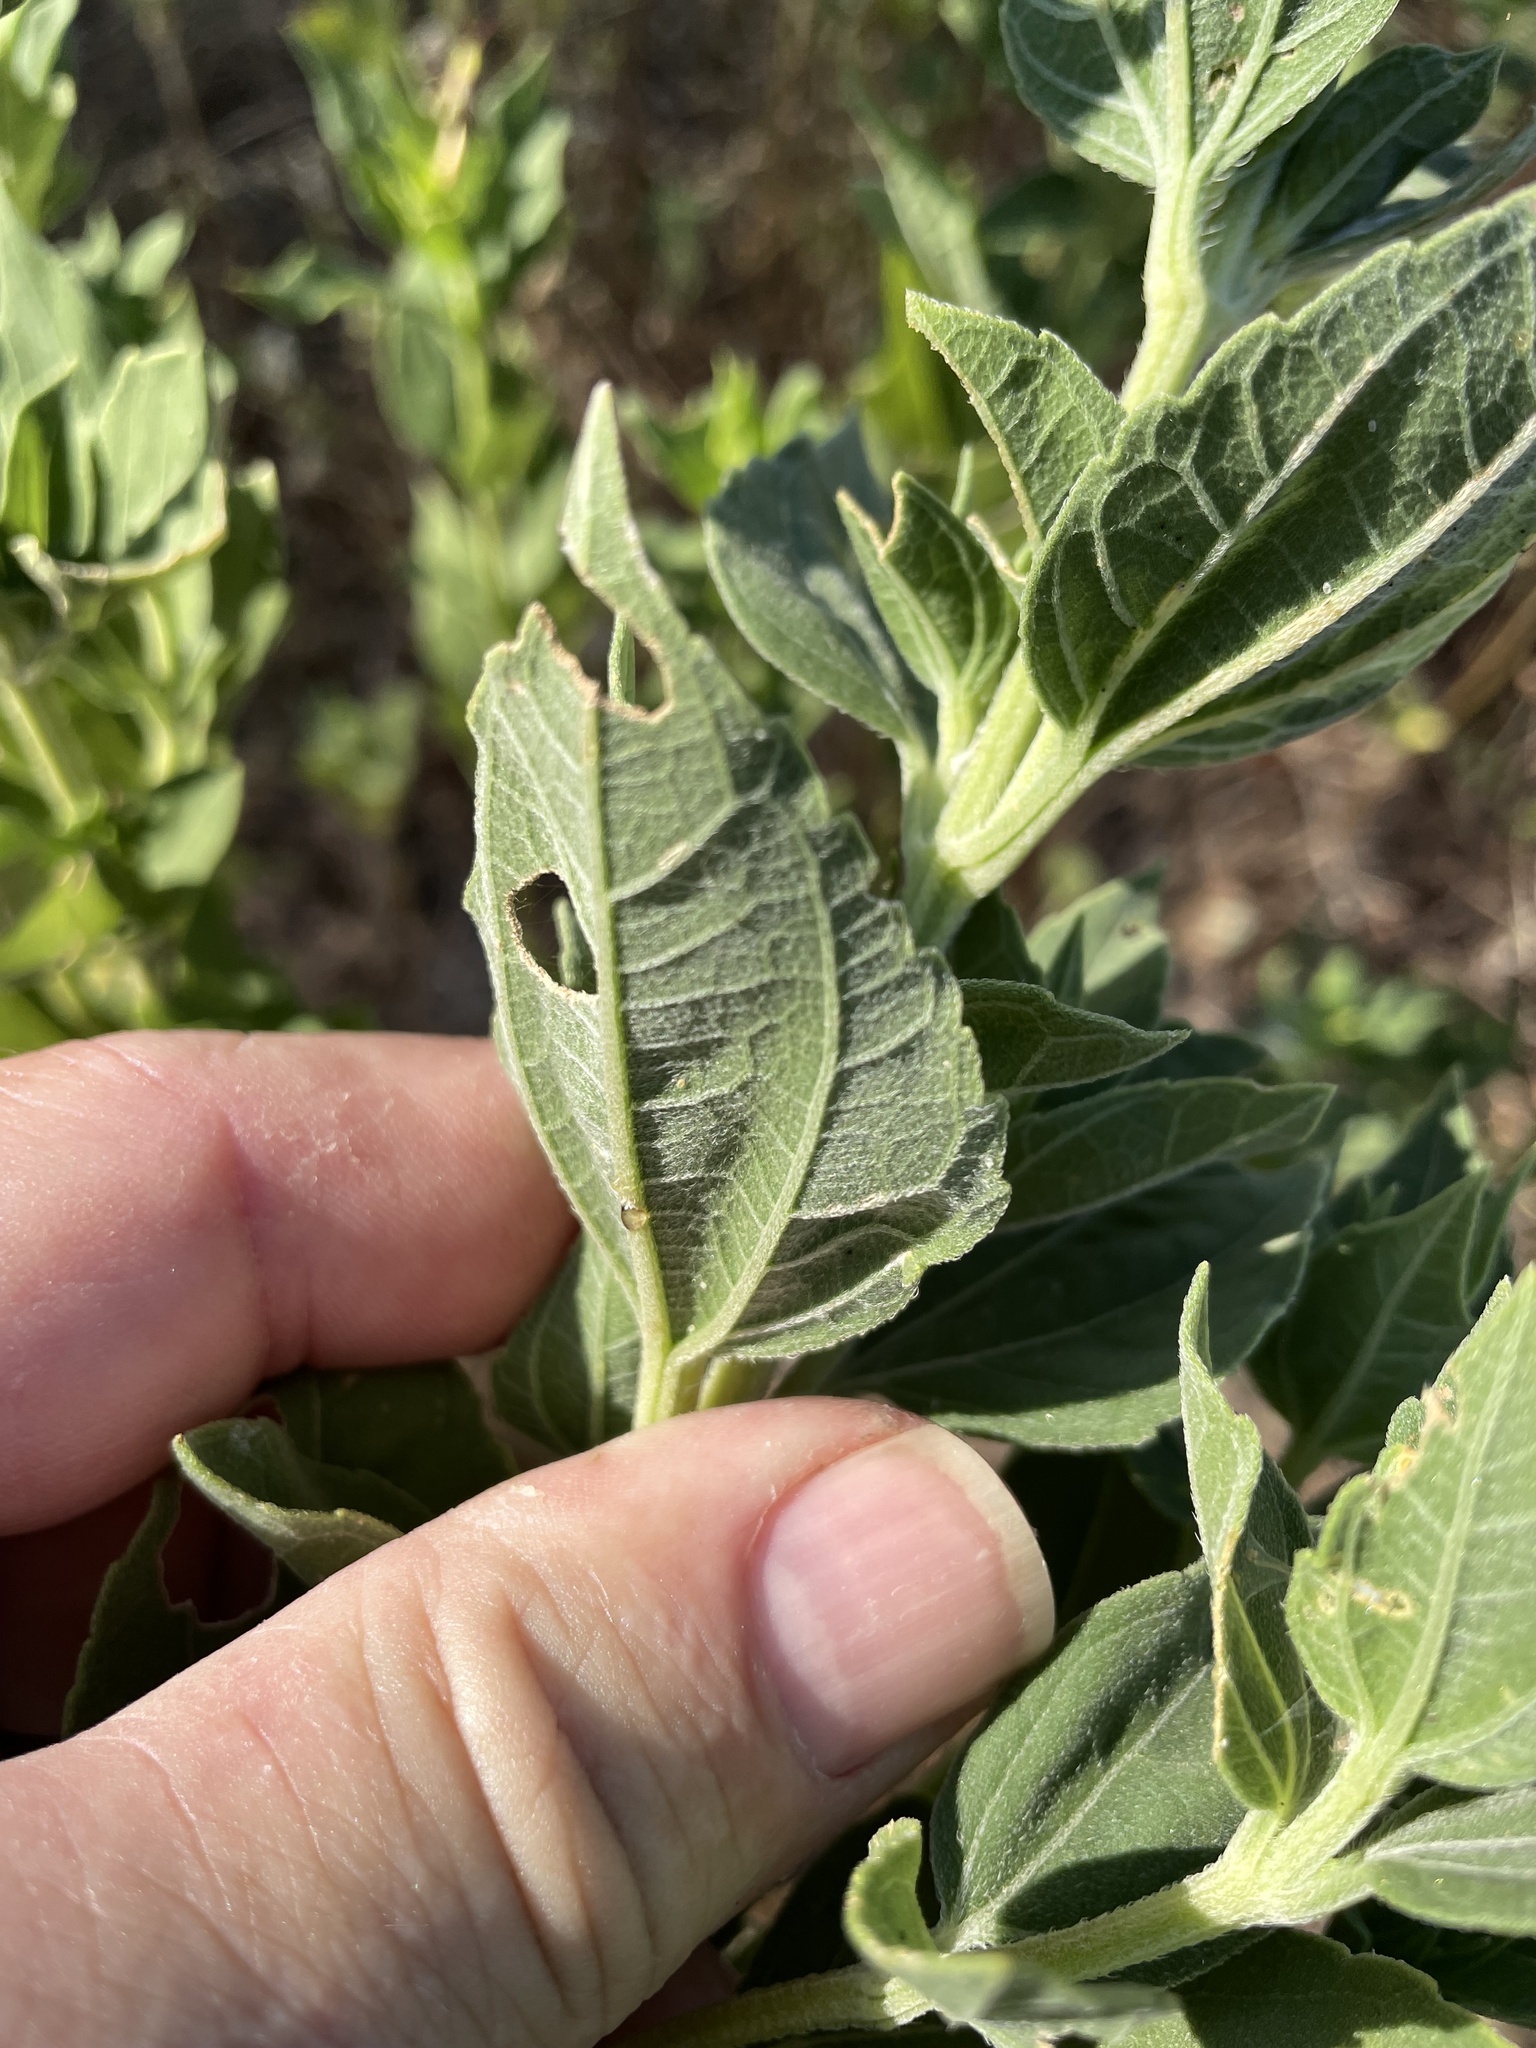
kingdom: Plantae
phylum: Tracheophyta
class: Magnoliopsida
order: Asterales
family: Asteraceae
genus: Iva
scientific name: Iva annua
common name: Marsh-elder
